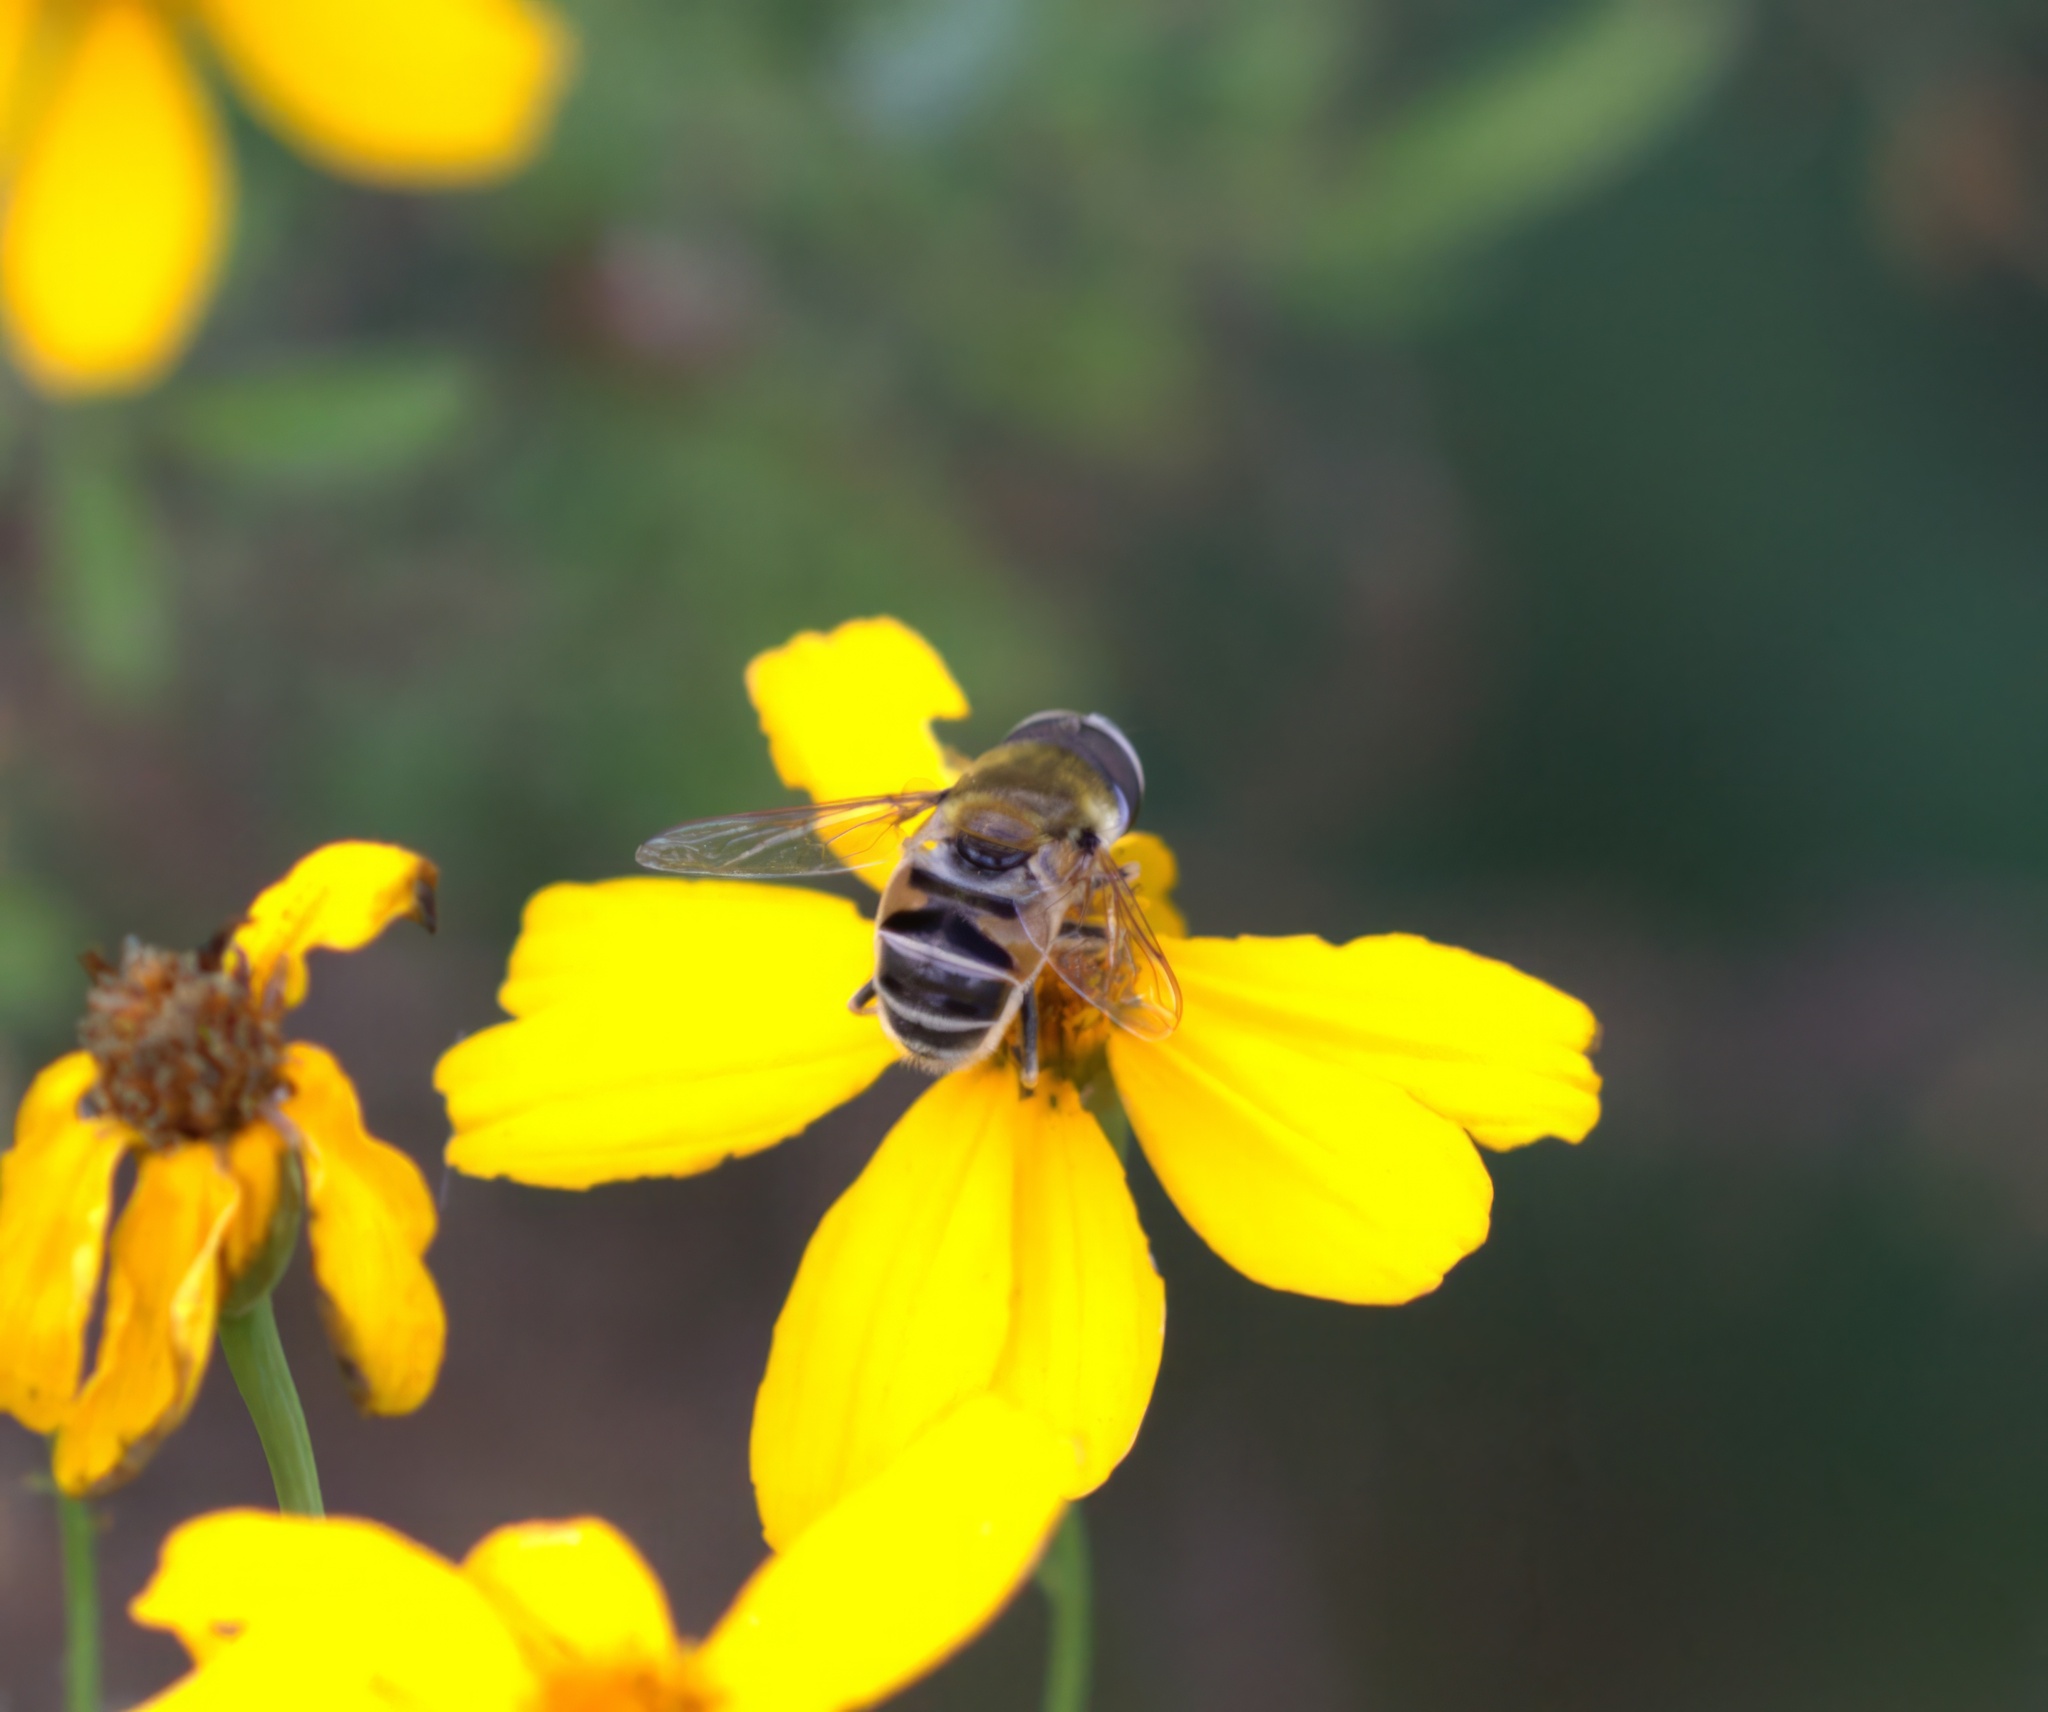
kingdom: Animalia
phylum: Arthropoda
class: Insecta
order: Diptera
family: Syrphidae
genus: Eristalis
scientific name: Eristalis stipator
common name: Yellow-shouldered drone fly
